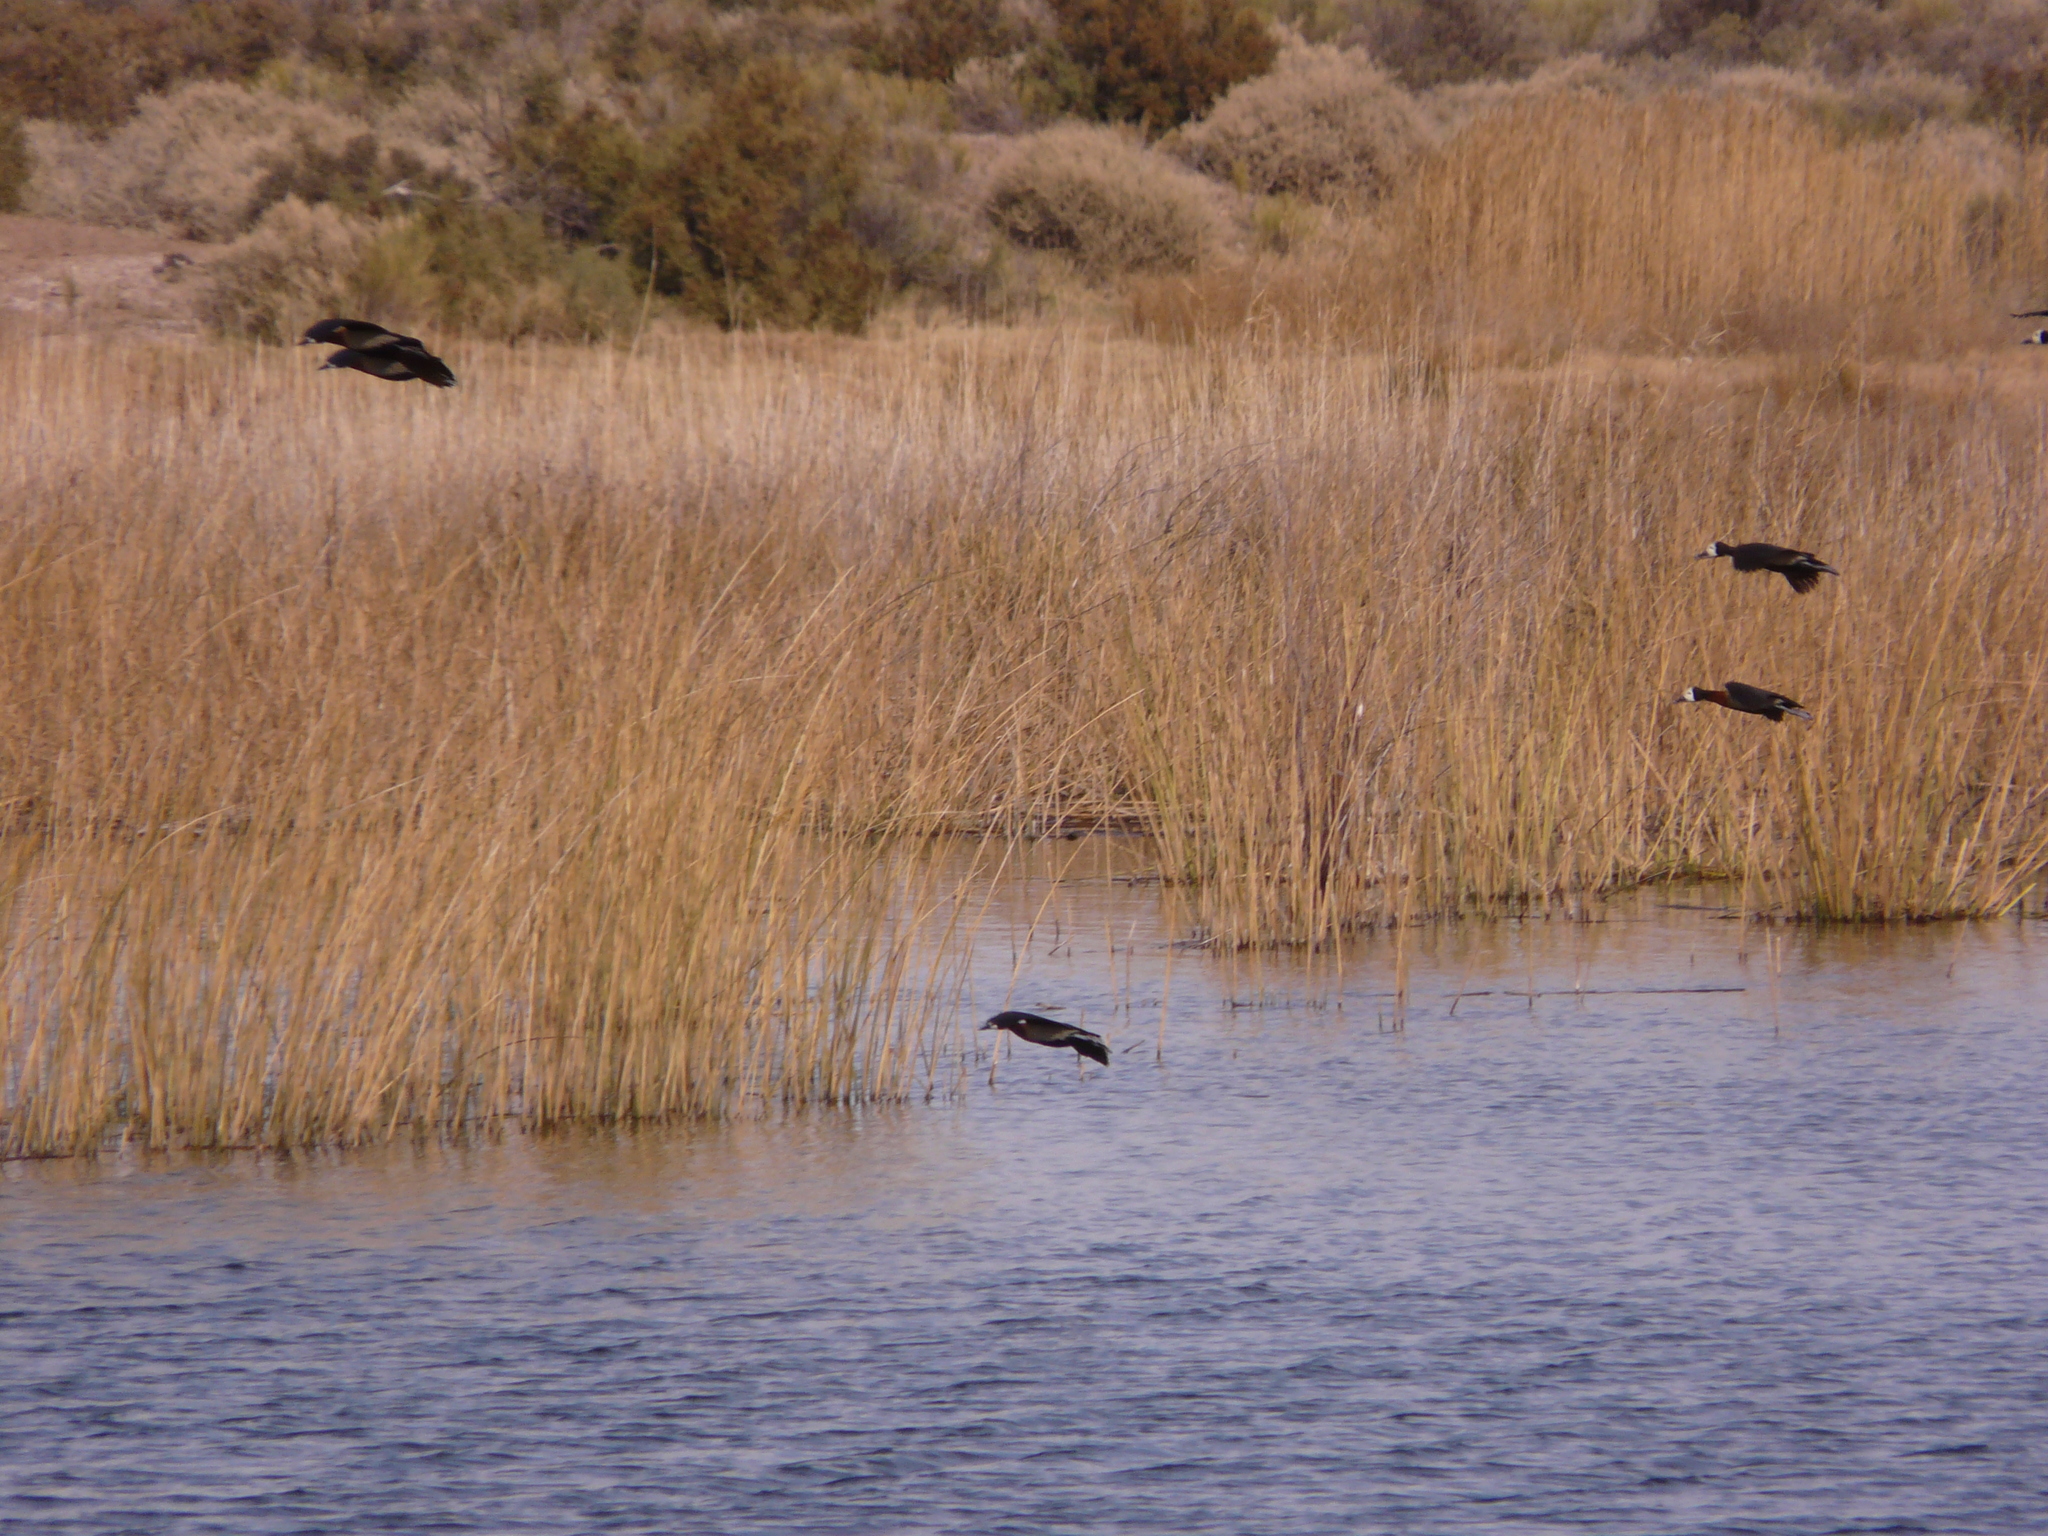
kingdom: Animalia
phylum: Chordata
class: Aves
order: Anseriformes
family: Anatidae
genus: Dendrocygna
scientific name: Dendrocygna viduata
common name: White-faced whistling duck
